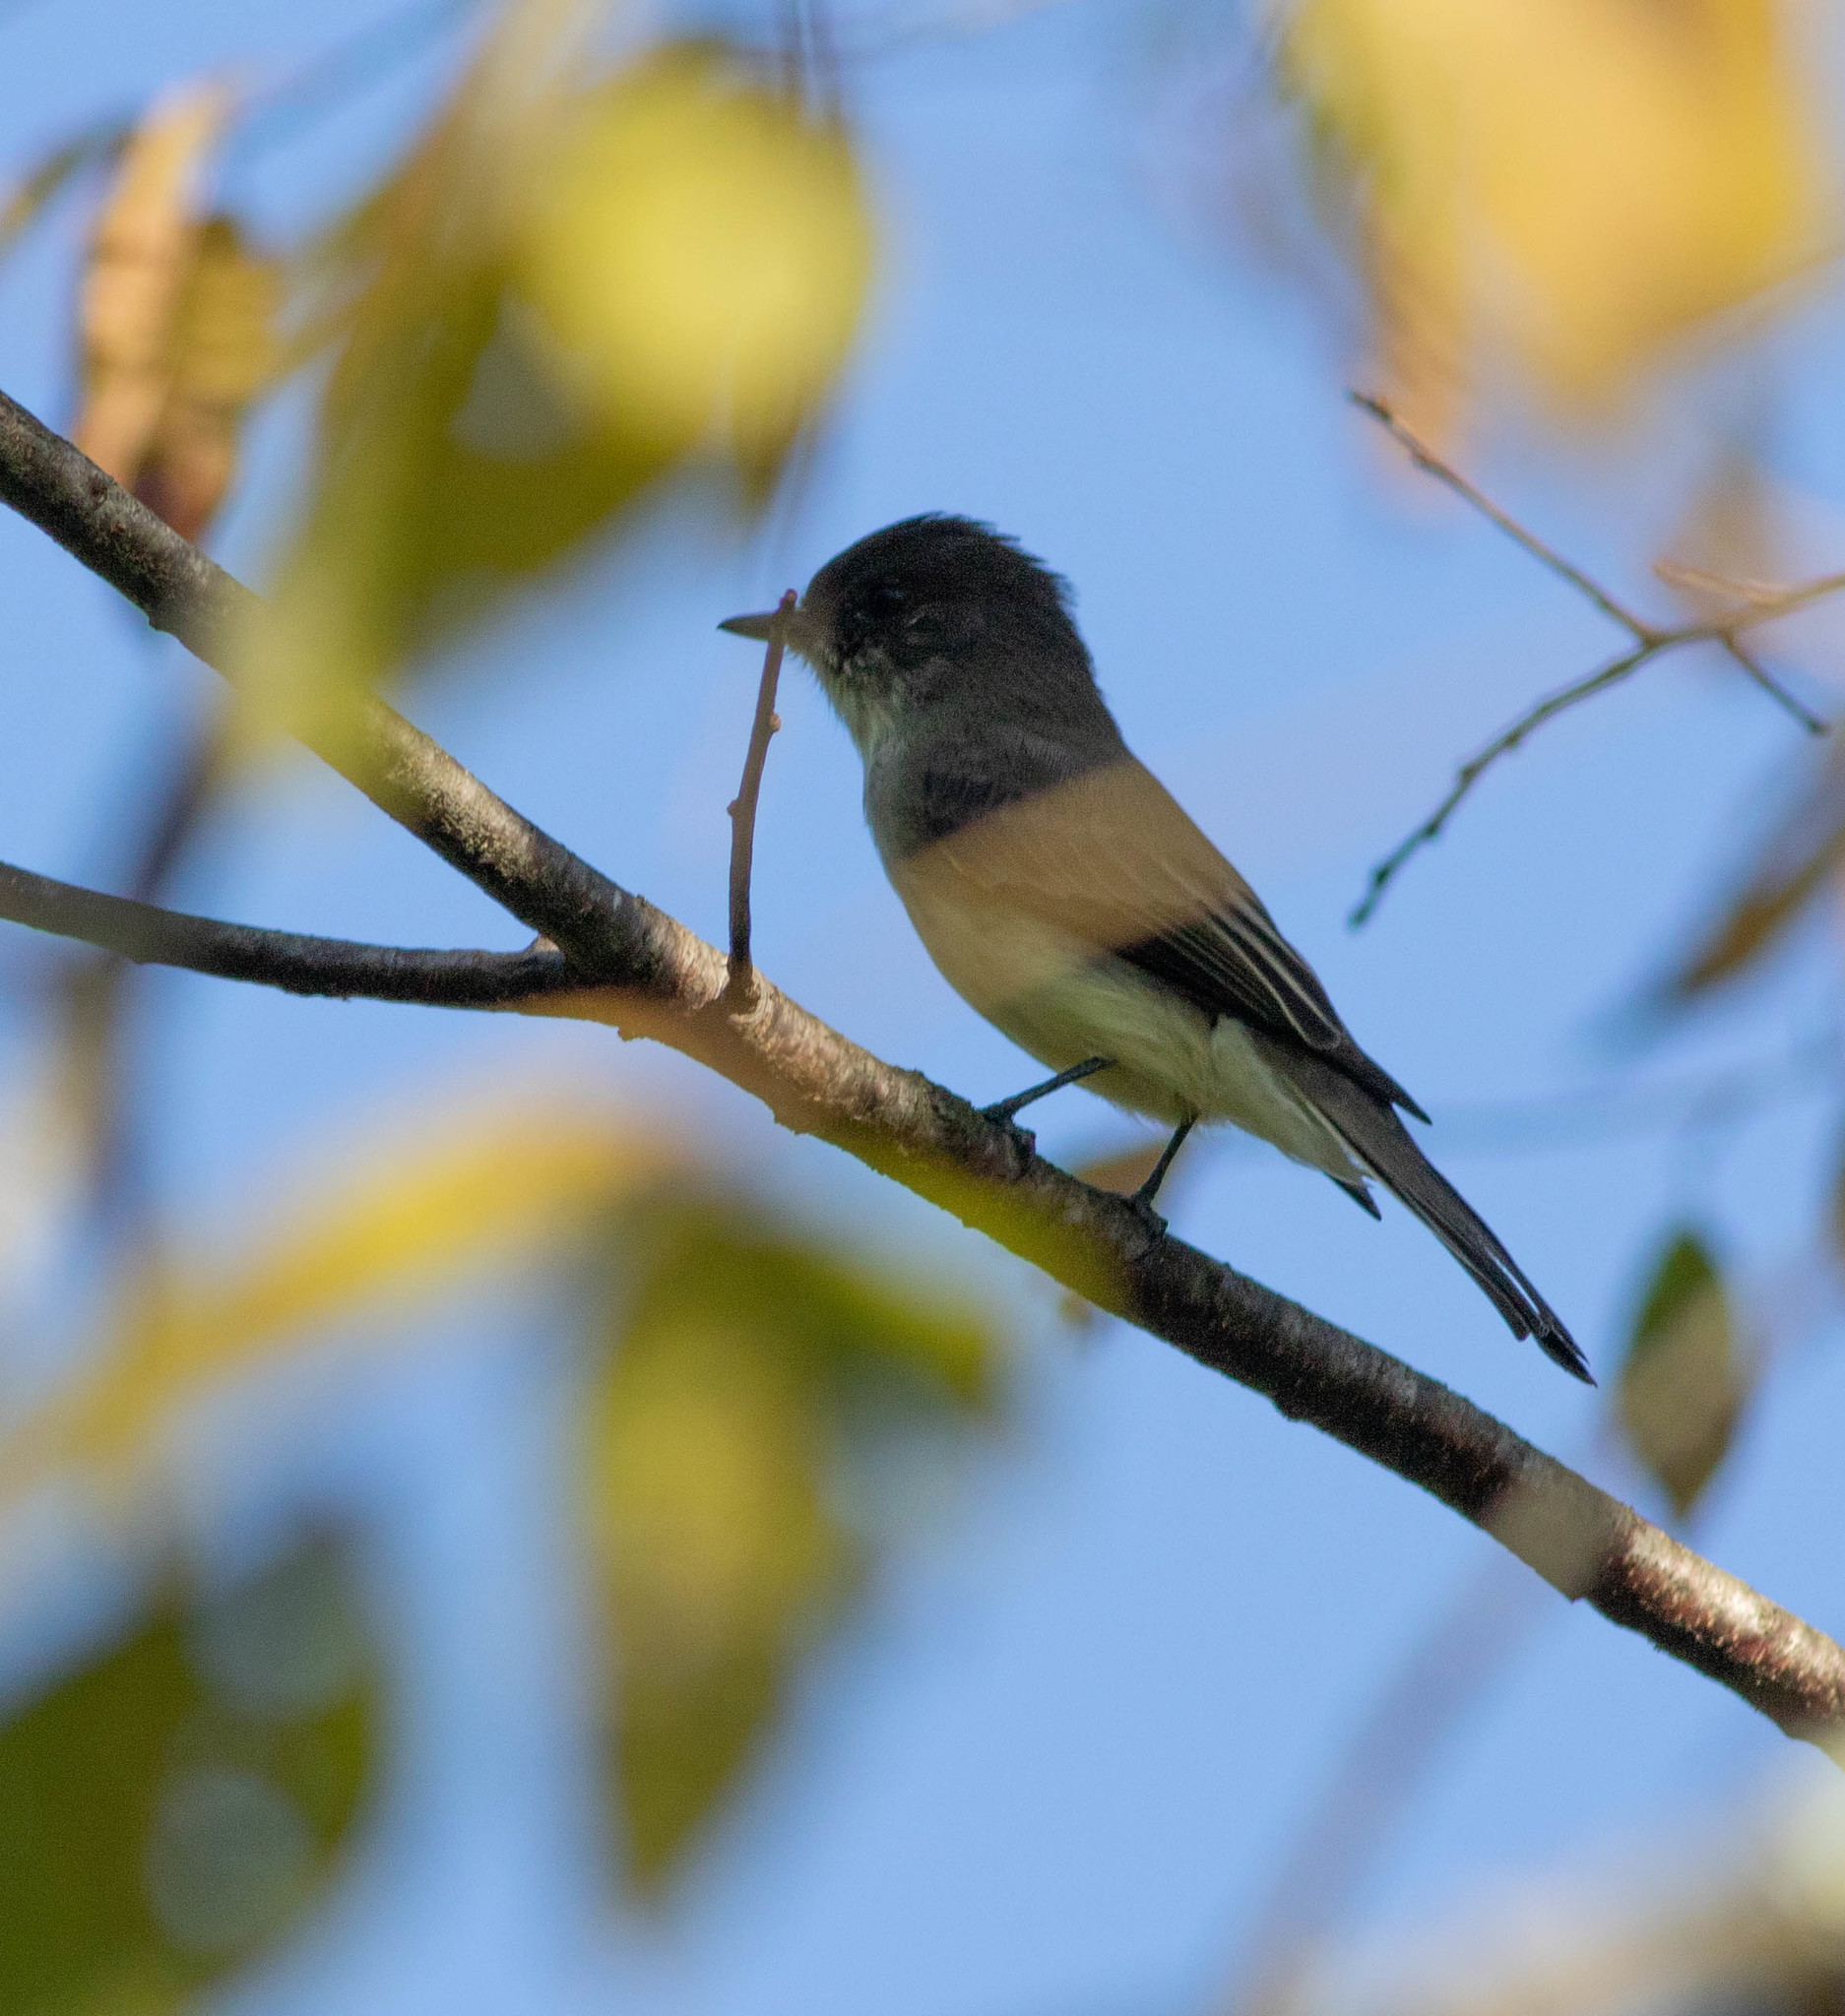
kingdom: Animalia
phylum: Chordata
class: Aves
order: Passeriformes
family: Tyrannidae
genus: Sayornis
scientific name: Sayornis phoebe
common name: Eastern phoebe
